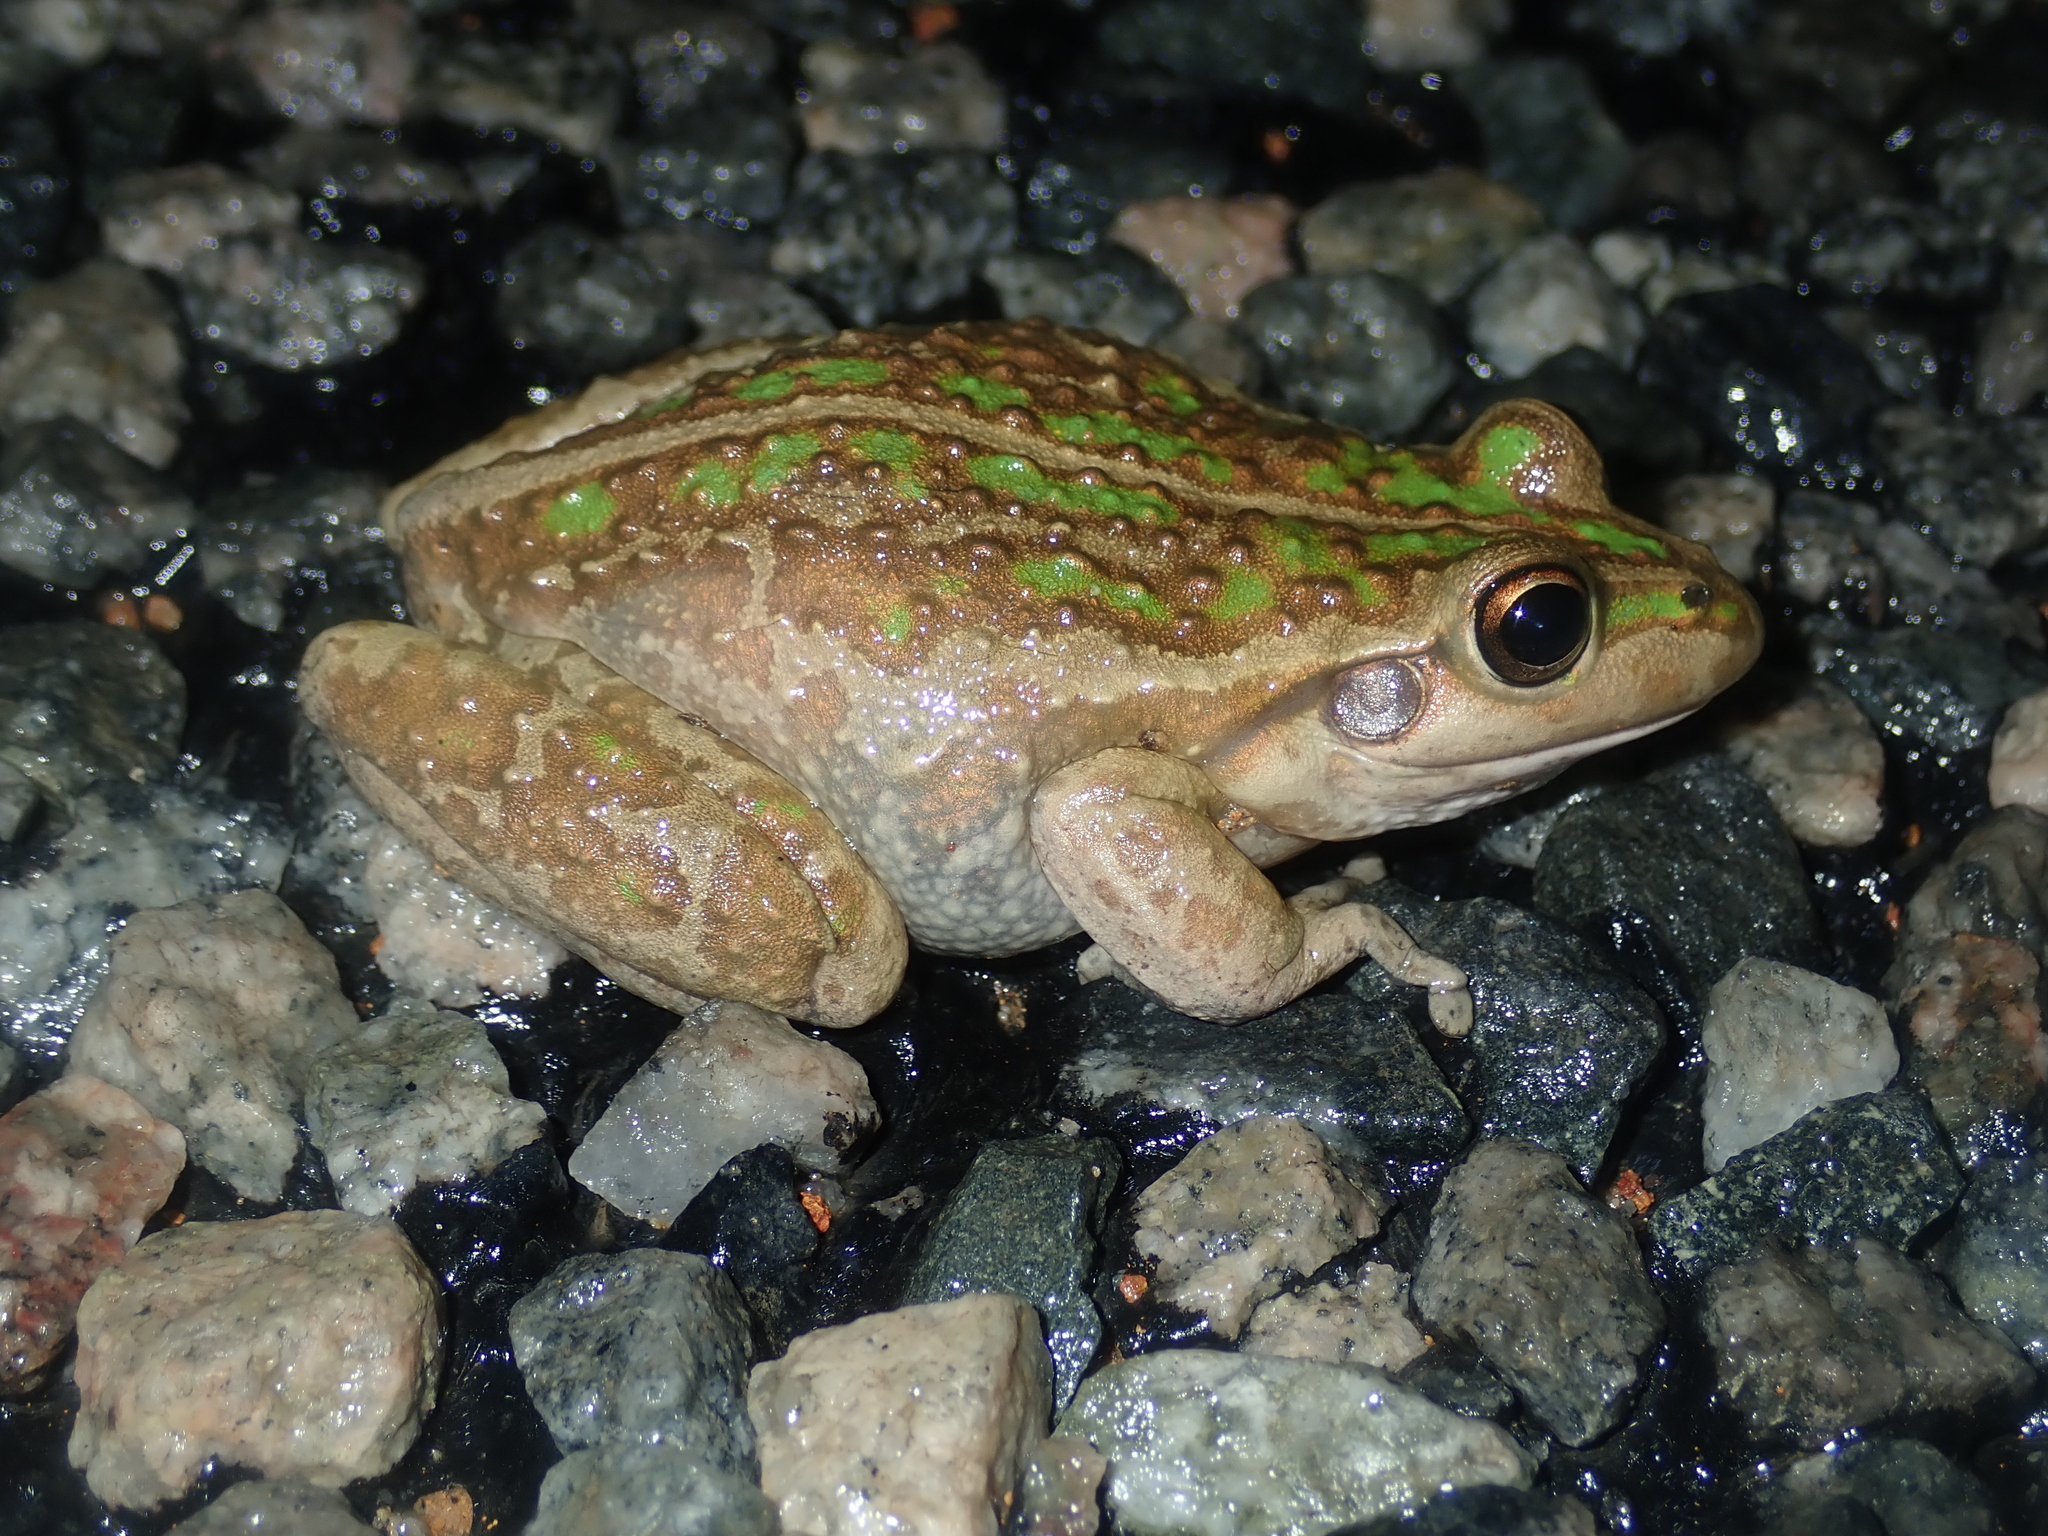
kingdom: Animalia
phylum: Chordata
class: Amphibia
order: Anura
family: Pelodryadidae
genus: Ranoidea
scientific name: Ranoidea moorei
